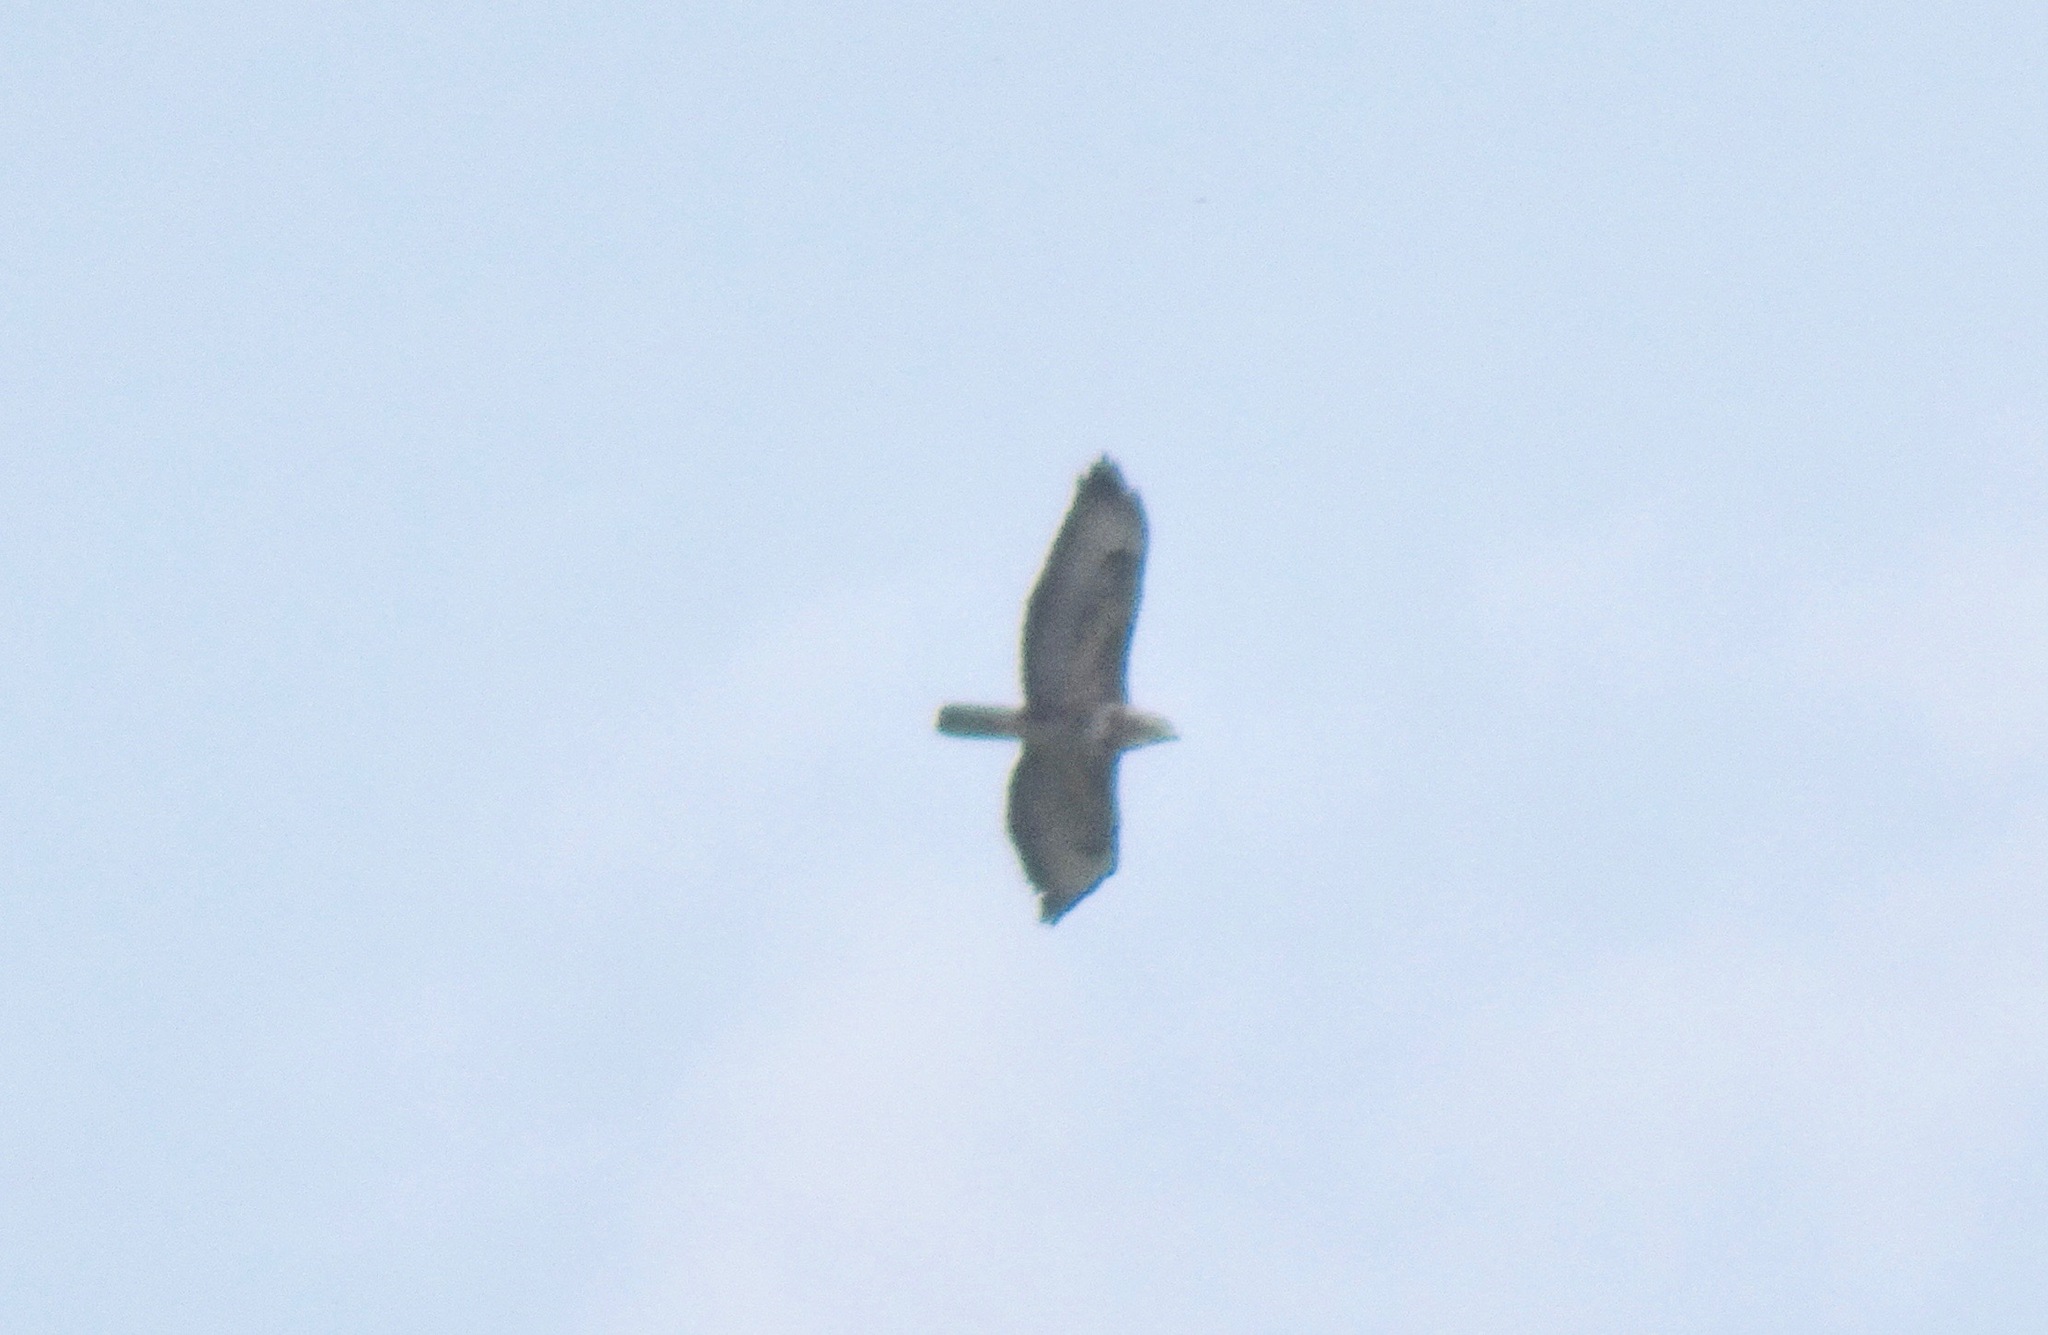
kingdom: Animalia
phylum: Chordata
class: Aves
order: Accipitriformes
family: Accipitridae
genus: Buteo
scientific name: Buteo buteo
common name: Common buzzard
